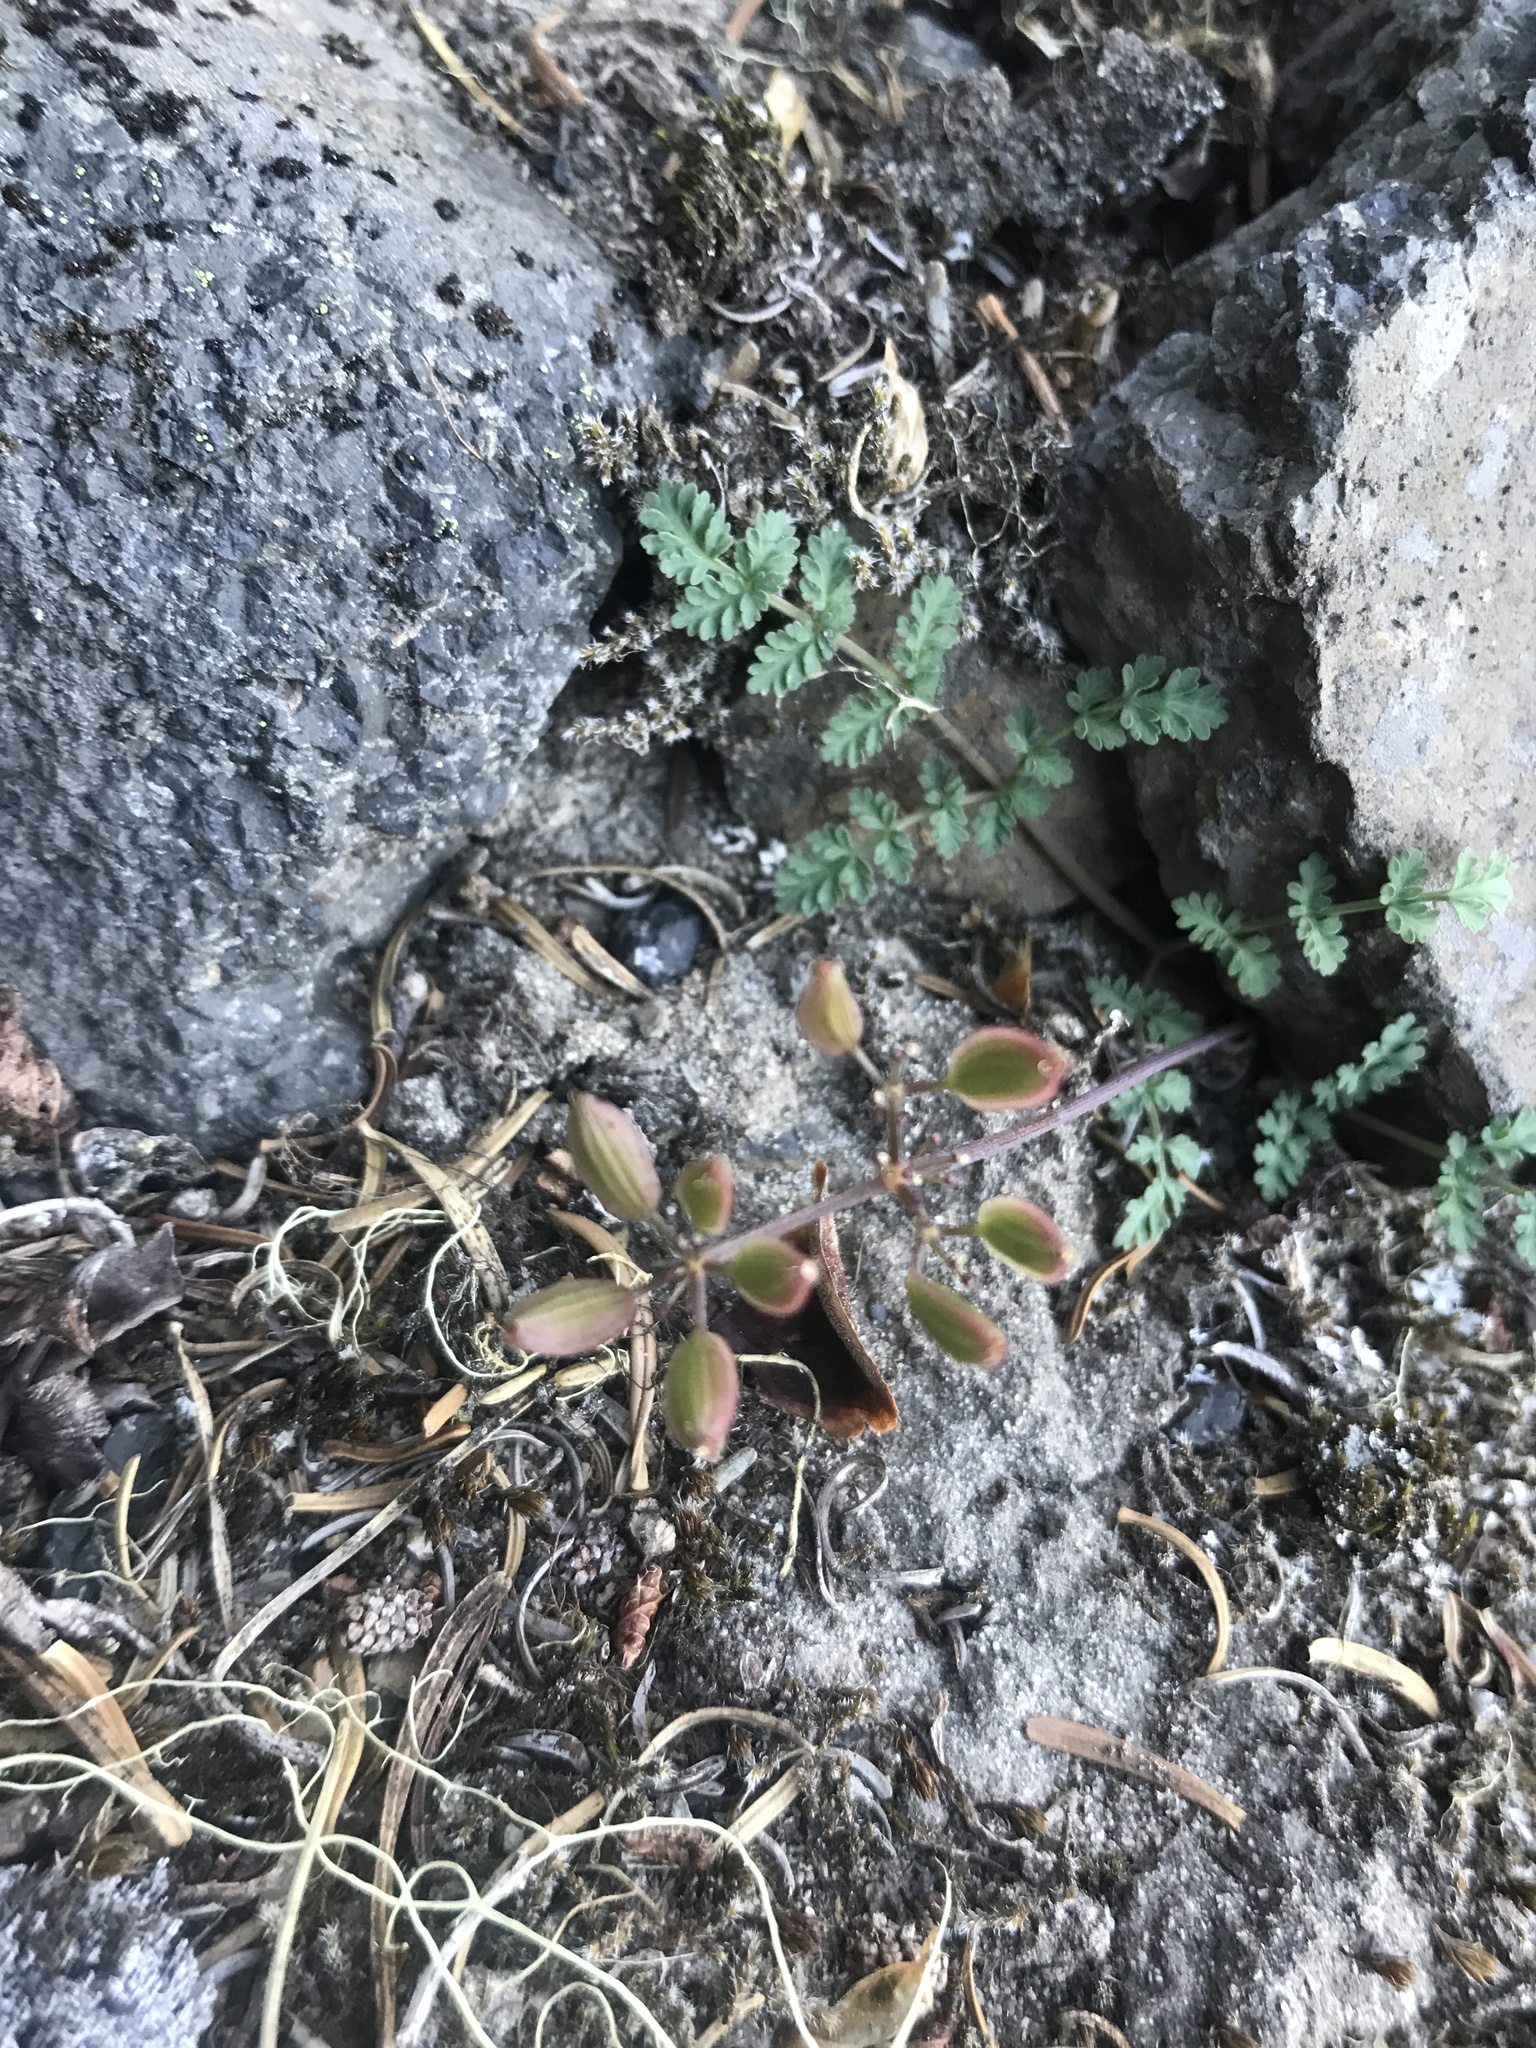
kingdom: Plantae
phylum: Tracheophyta
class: Magnoliopsida
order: Apiales
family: Apiaceae
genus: Lomatium
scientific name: Lomatium martindalei
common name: Cascade desert-parsley
